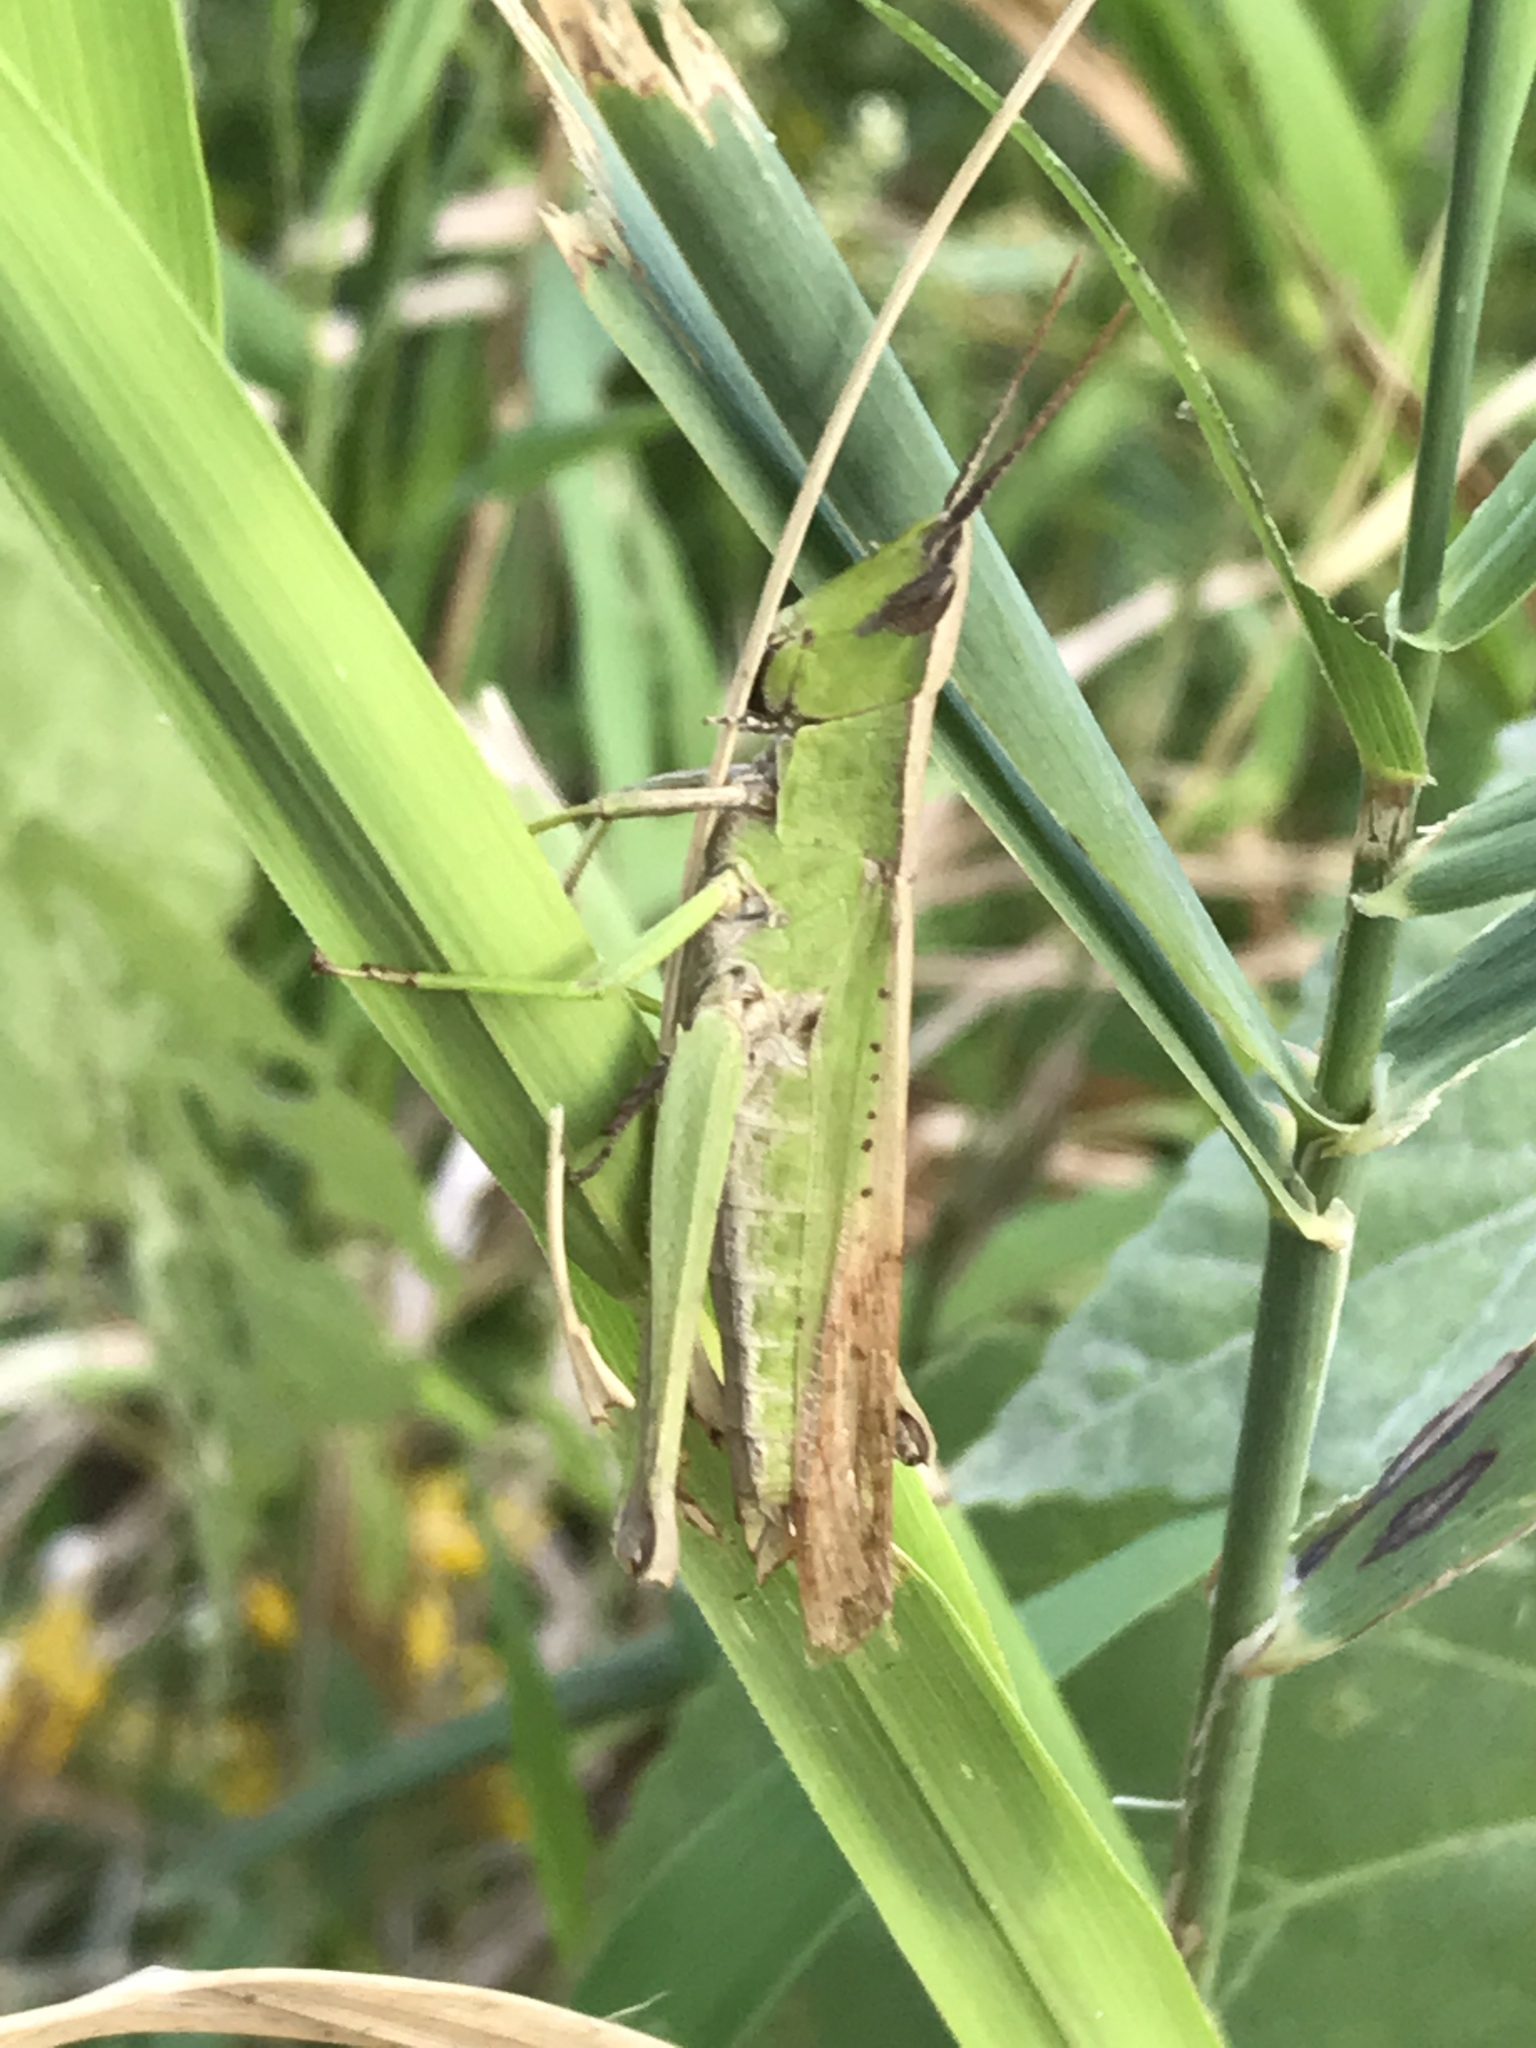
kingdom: Animalia
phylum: Arthropoda
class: Insecta
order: Orthoptera
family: Acrididae
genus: Metaleptea
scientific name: Metaleptea brevicornis
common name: Clipped-wing grasshopper
